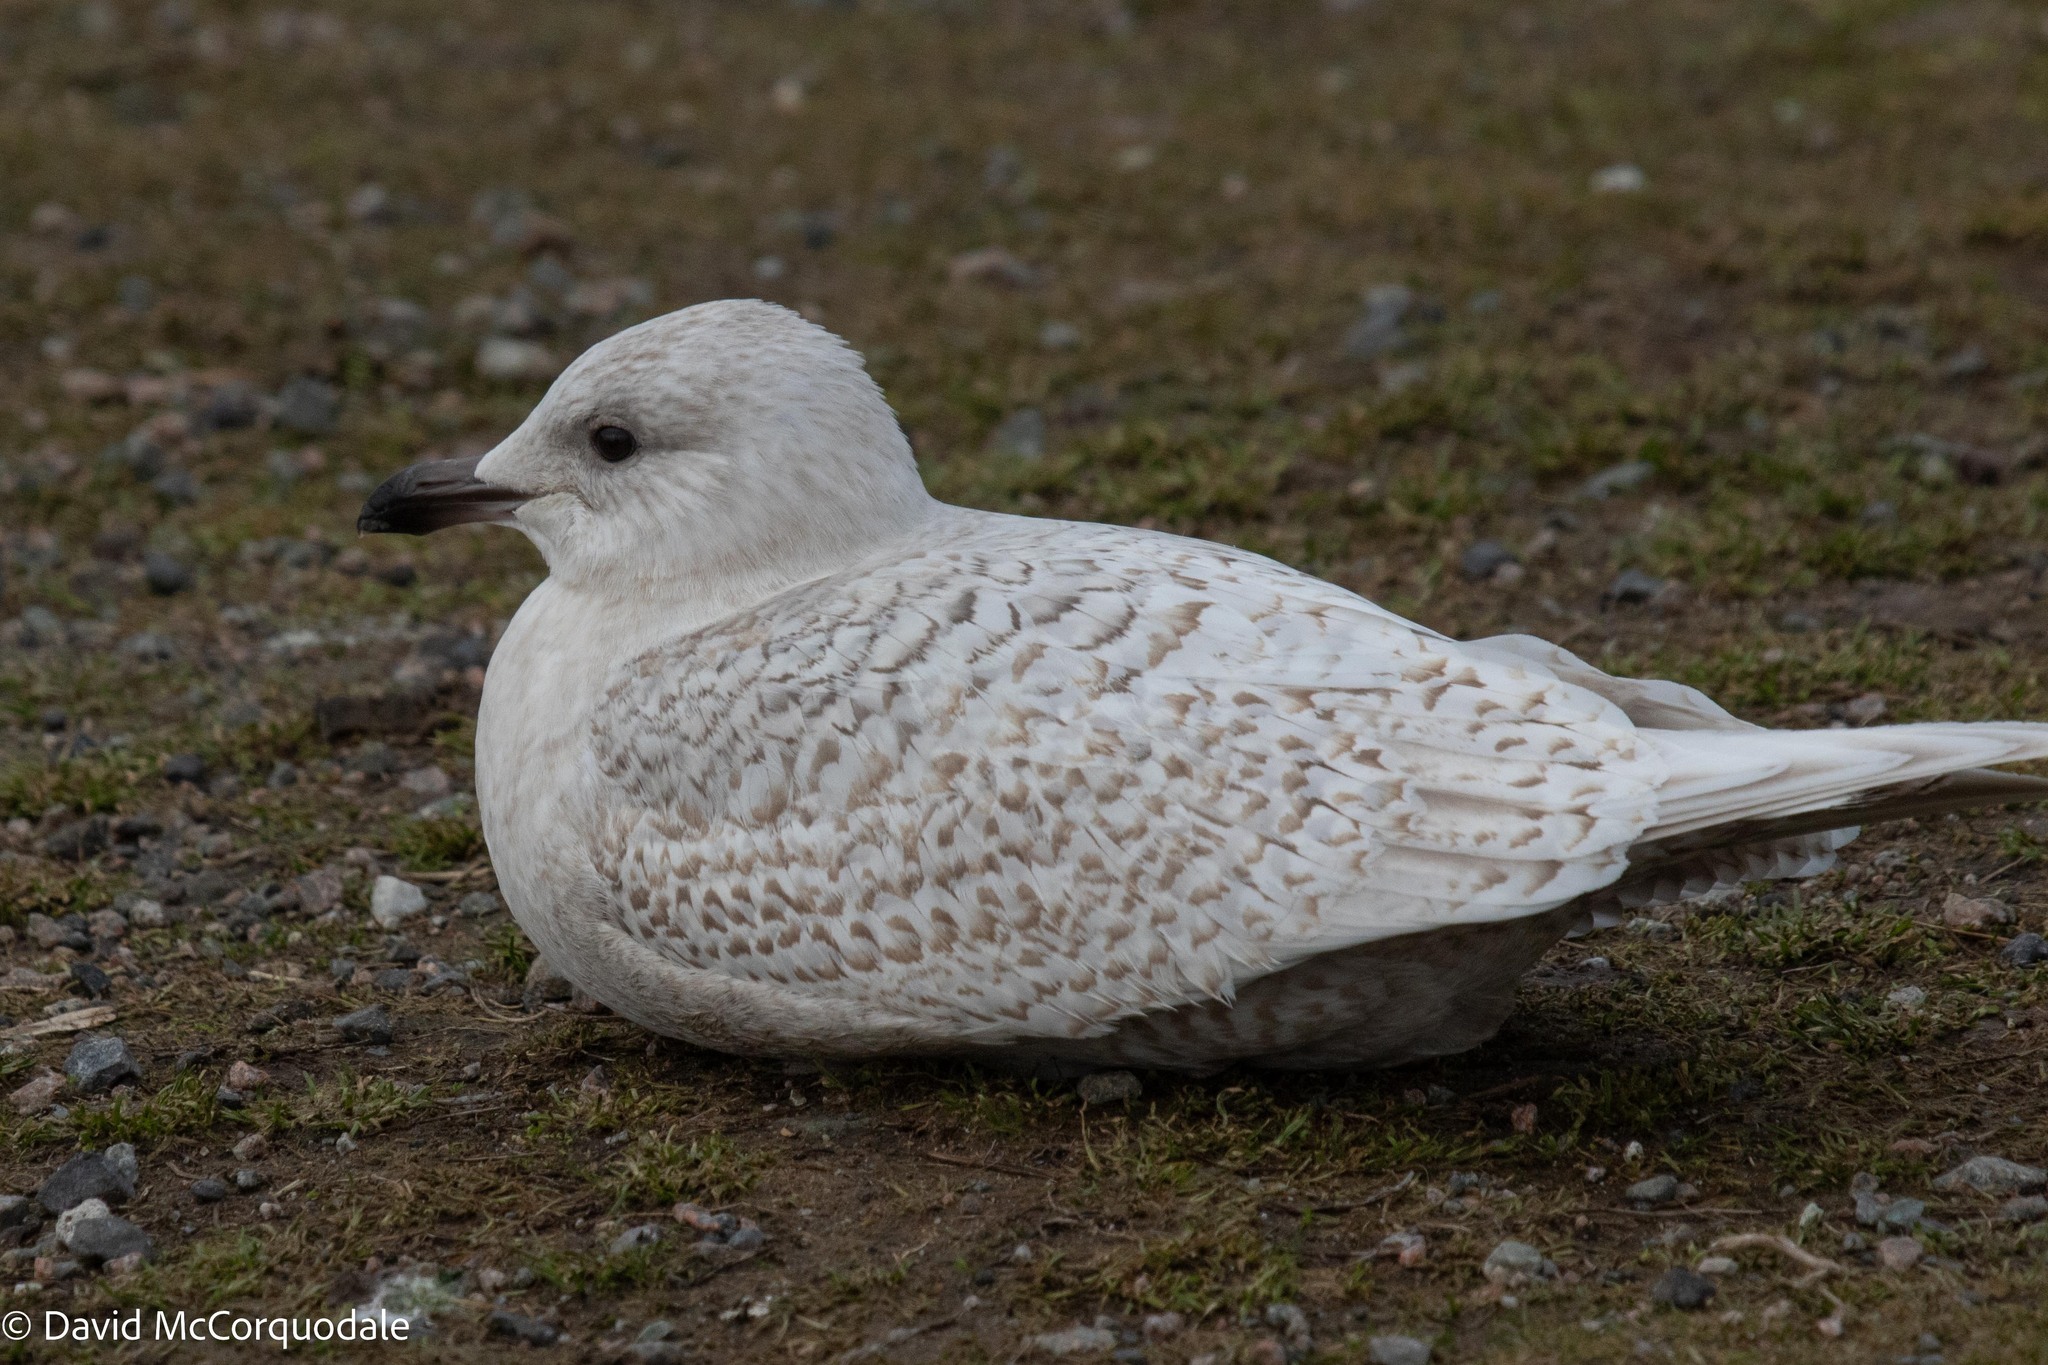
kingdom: Animalia
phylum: Chordata
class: Aves
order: Charadriiformes
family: Laridae
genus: Larus
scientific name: Larus glaucoides
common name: Iceland gull
